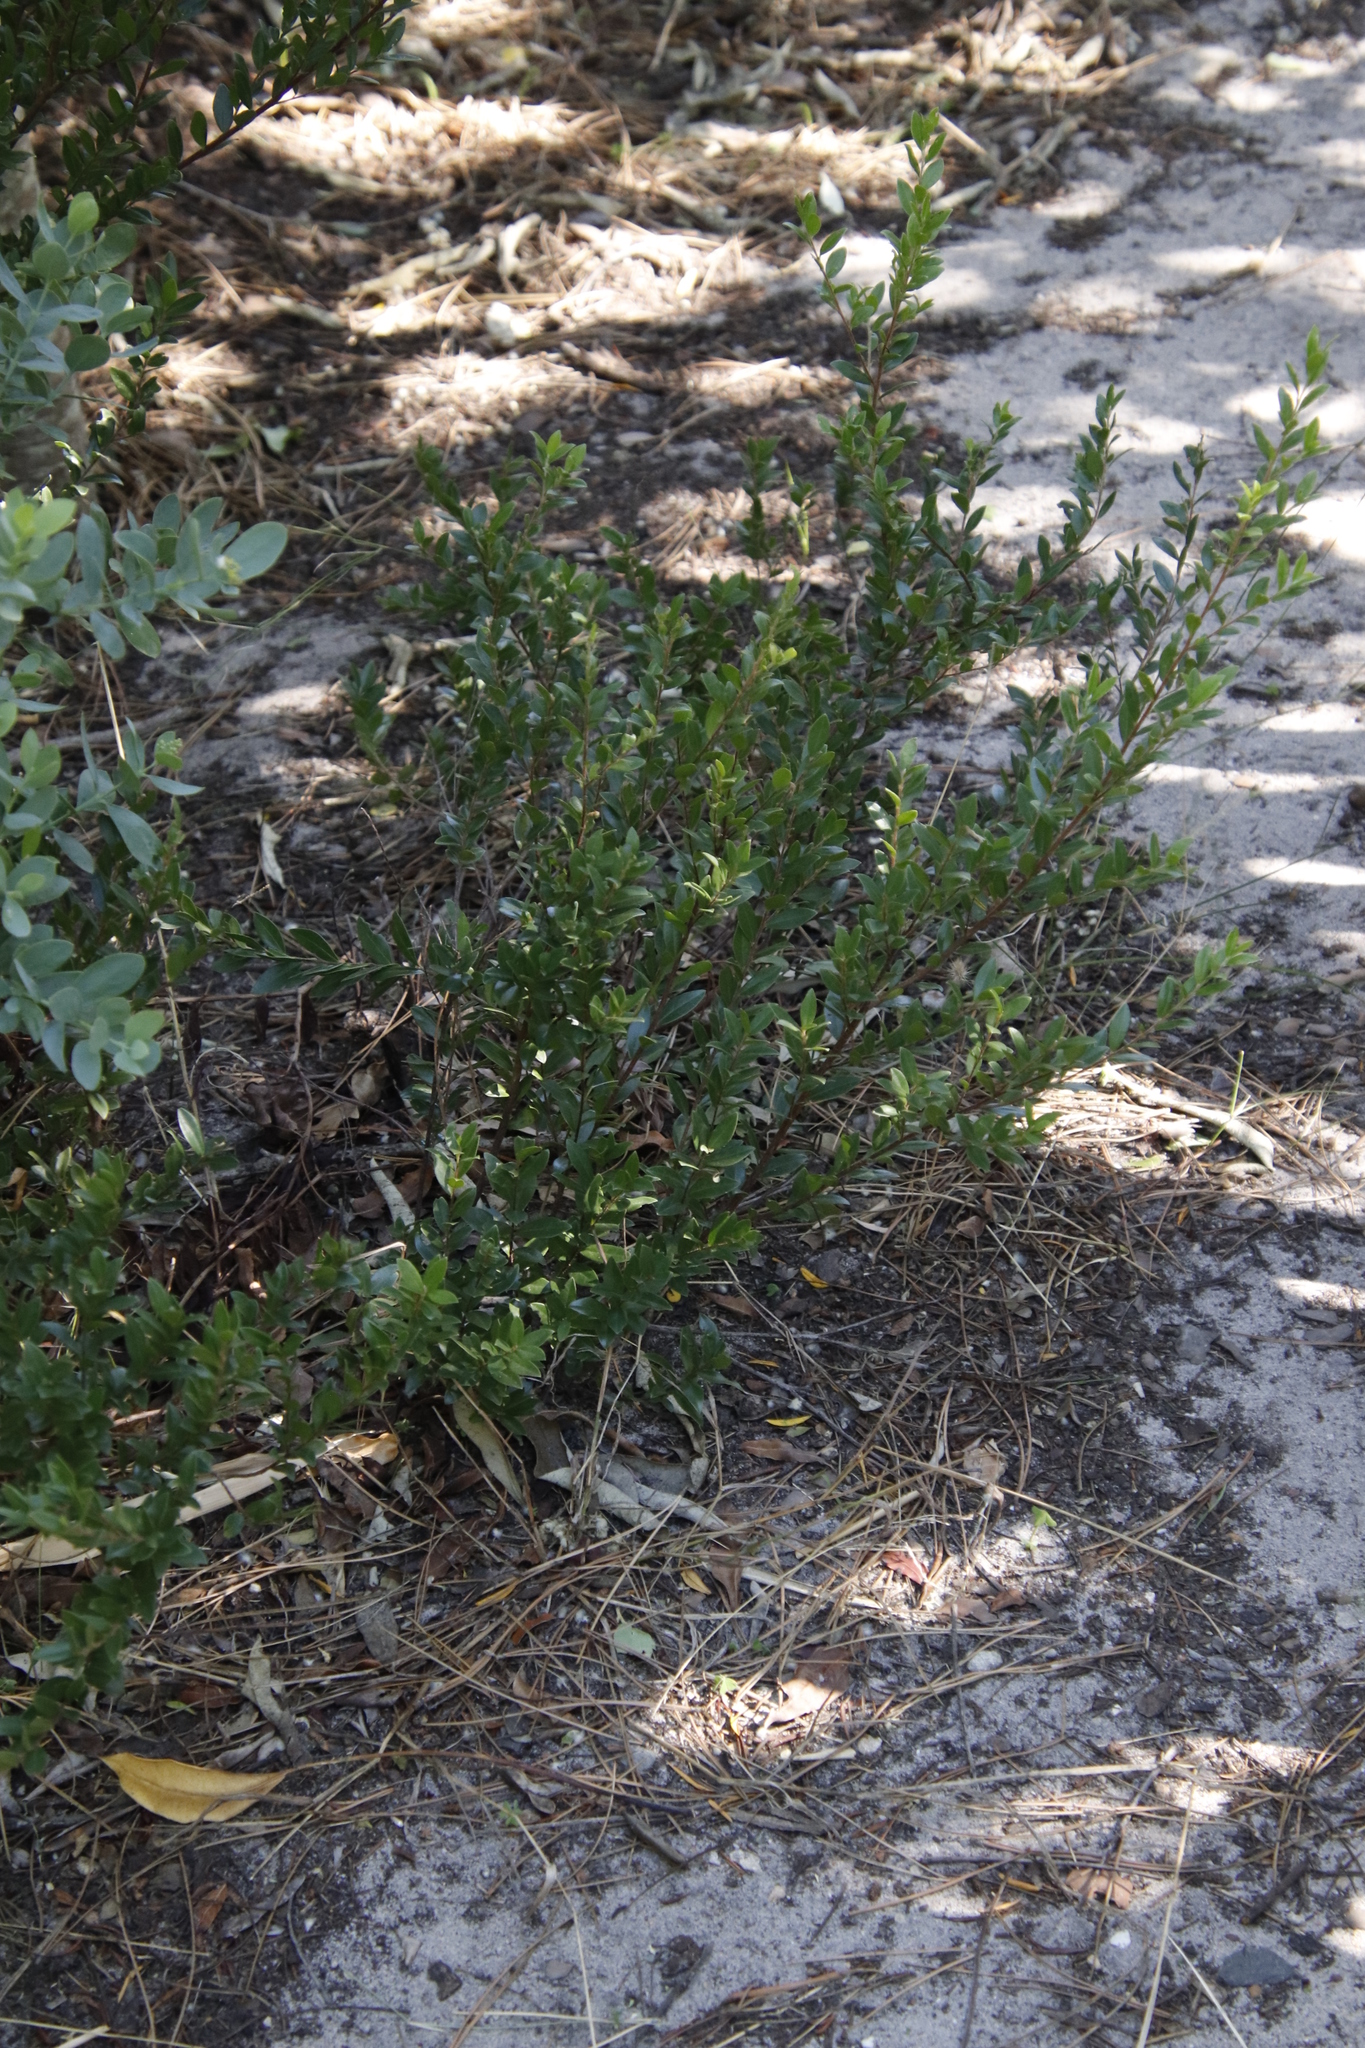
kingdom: Plantae
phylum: Tracheophyta
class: Magnoliopsida
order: Ericales
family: Ebenaceae
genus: Diospyros
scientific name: Diospyros glabra
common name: Fynbos star apple
